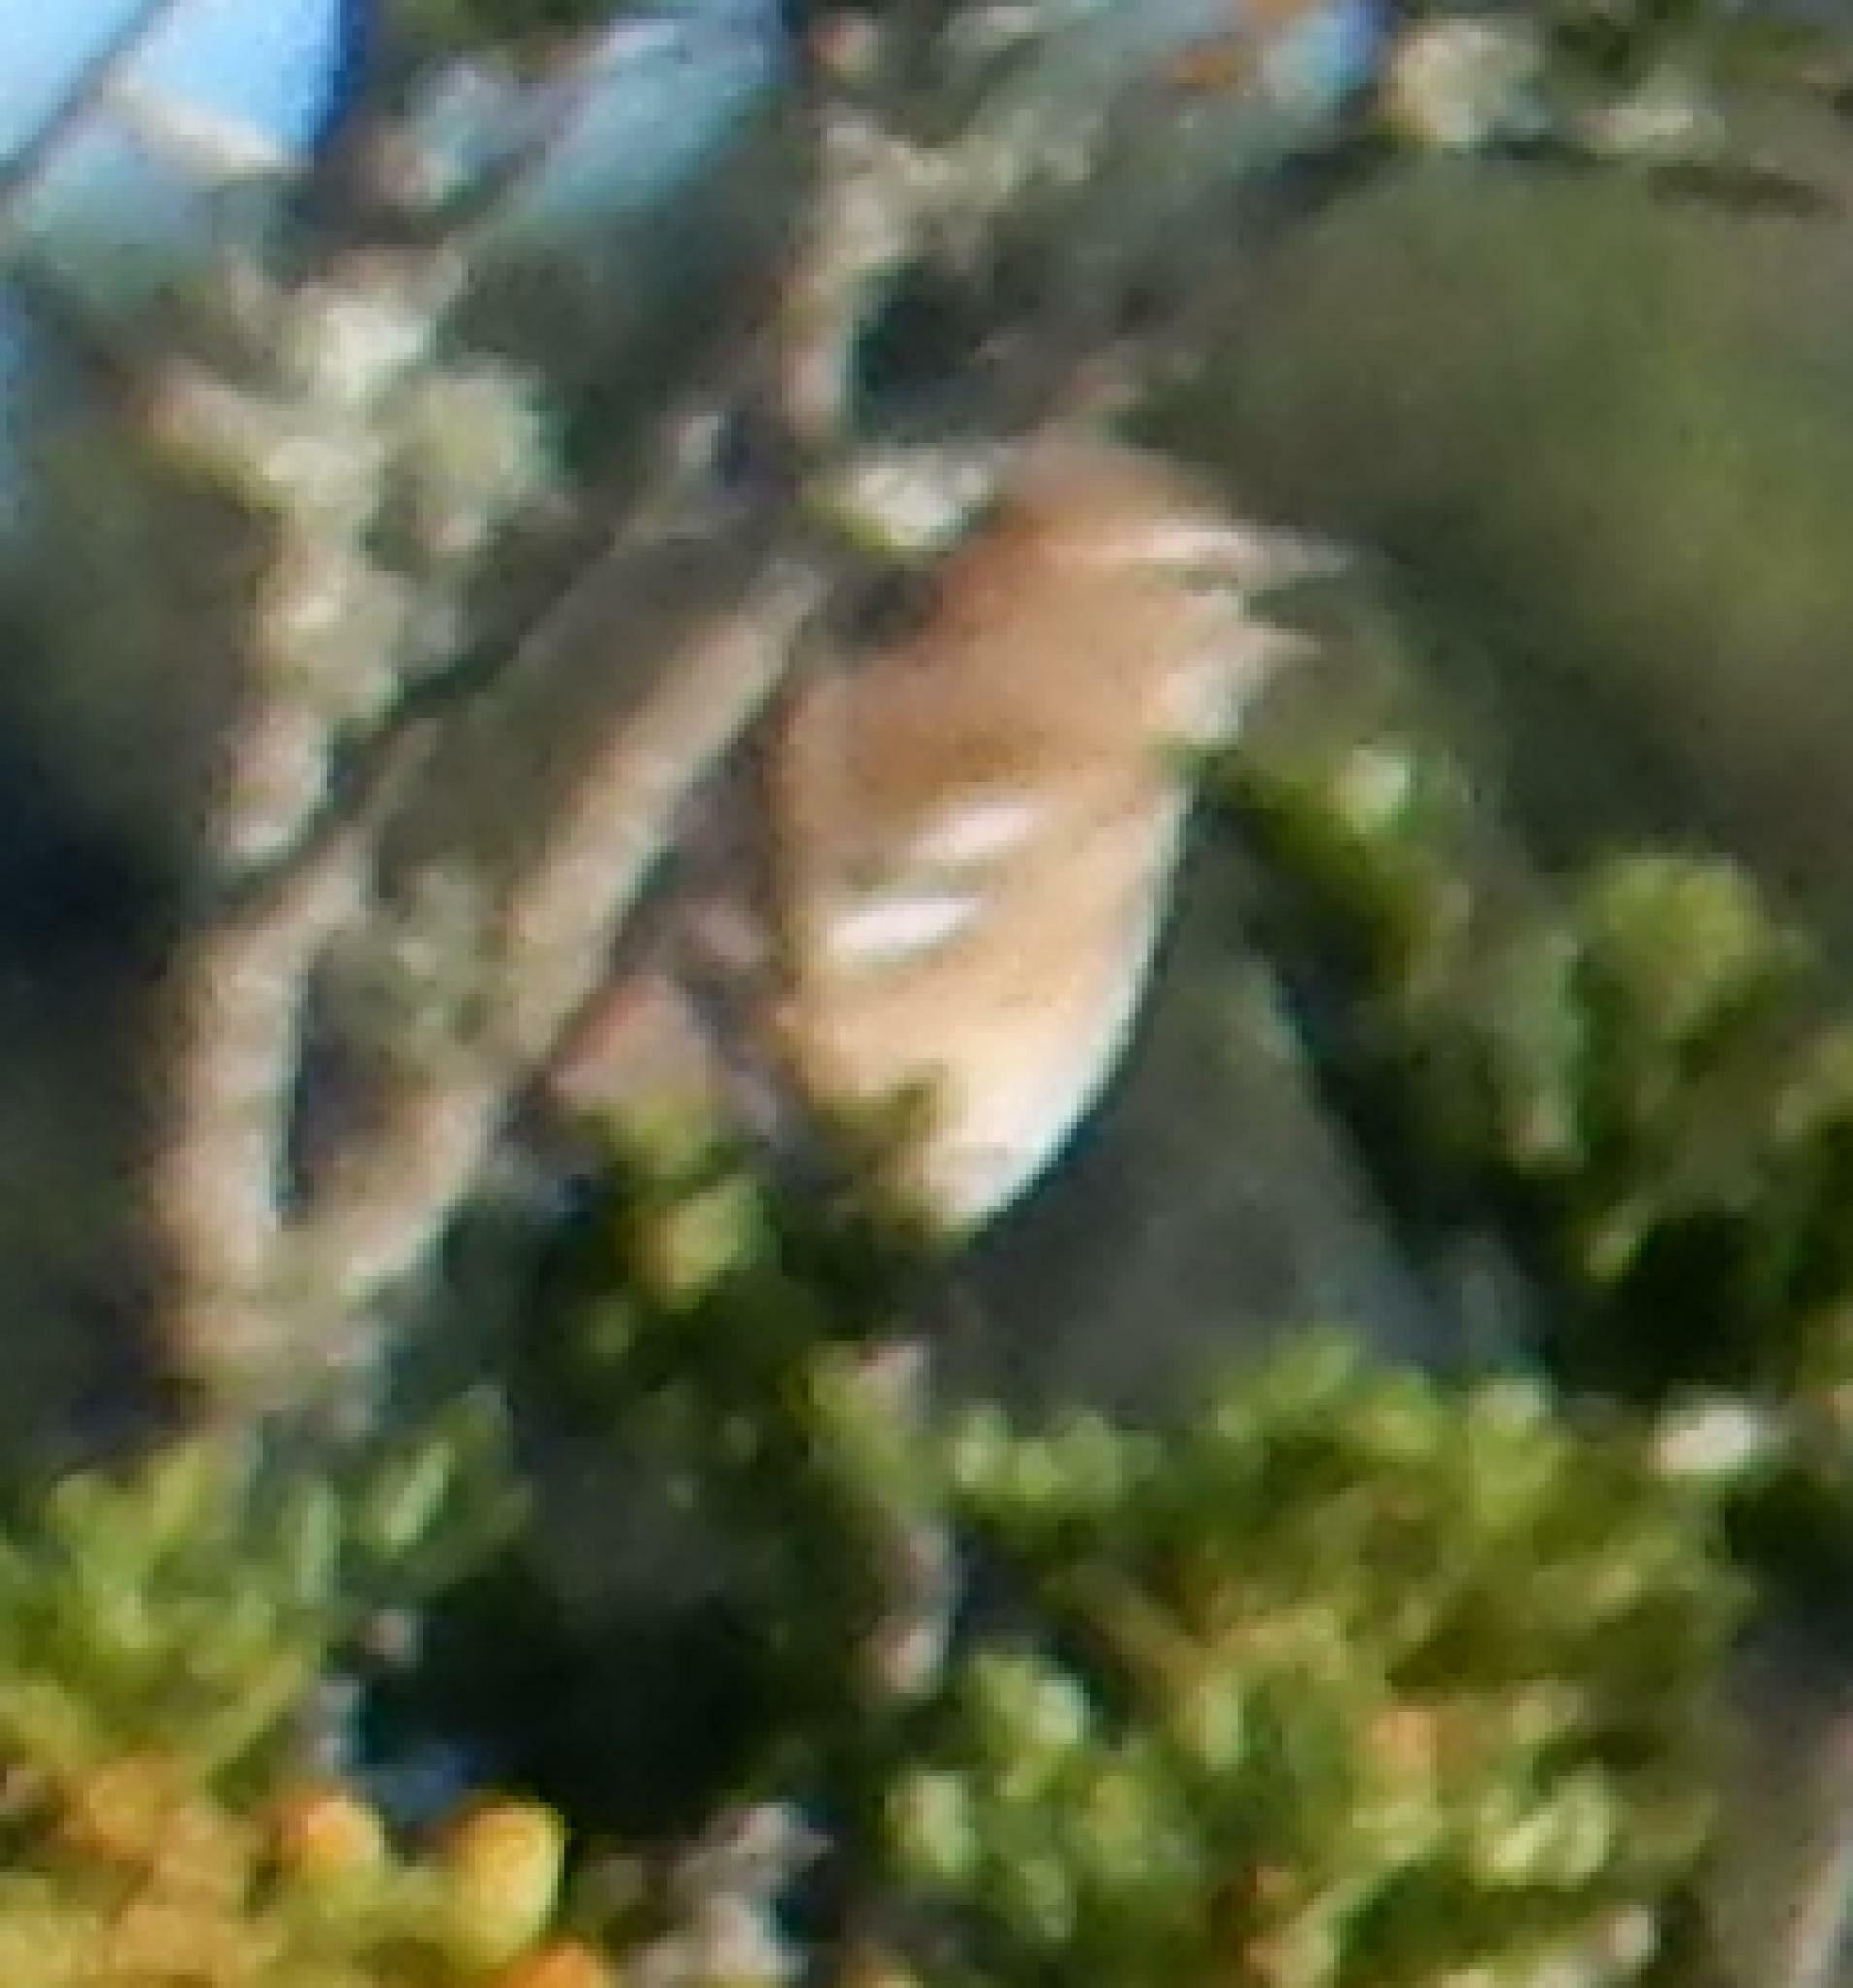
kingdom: Animalia
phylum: Chordata
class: Aves
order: Passeriformes
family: Muscicapidae
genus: Erythropygia
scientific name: Erythropygia leucophrys
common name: White-browed scrub robin
